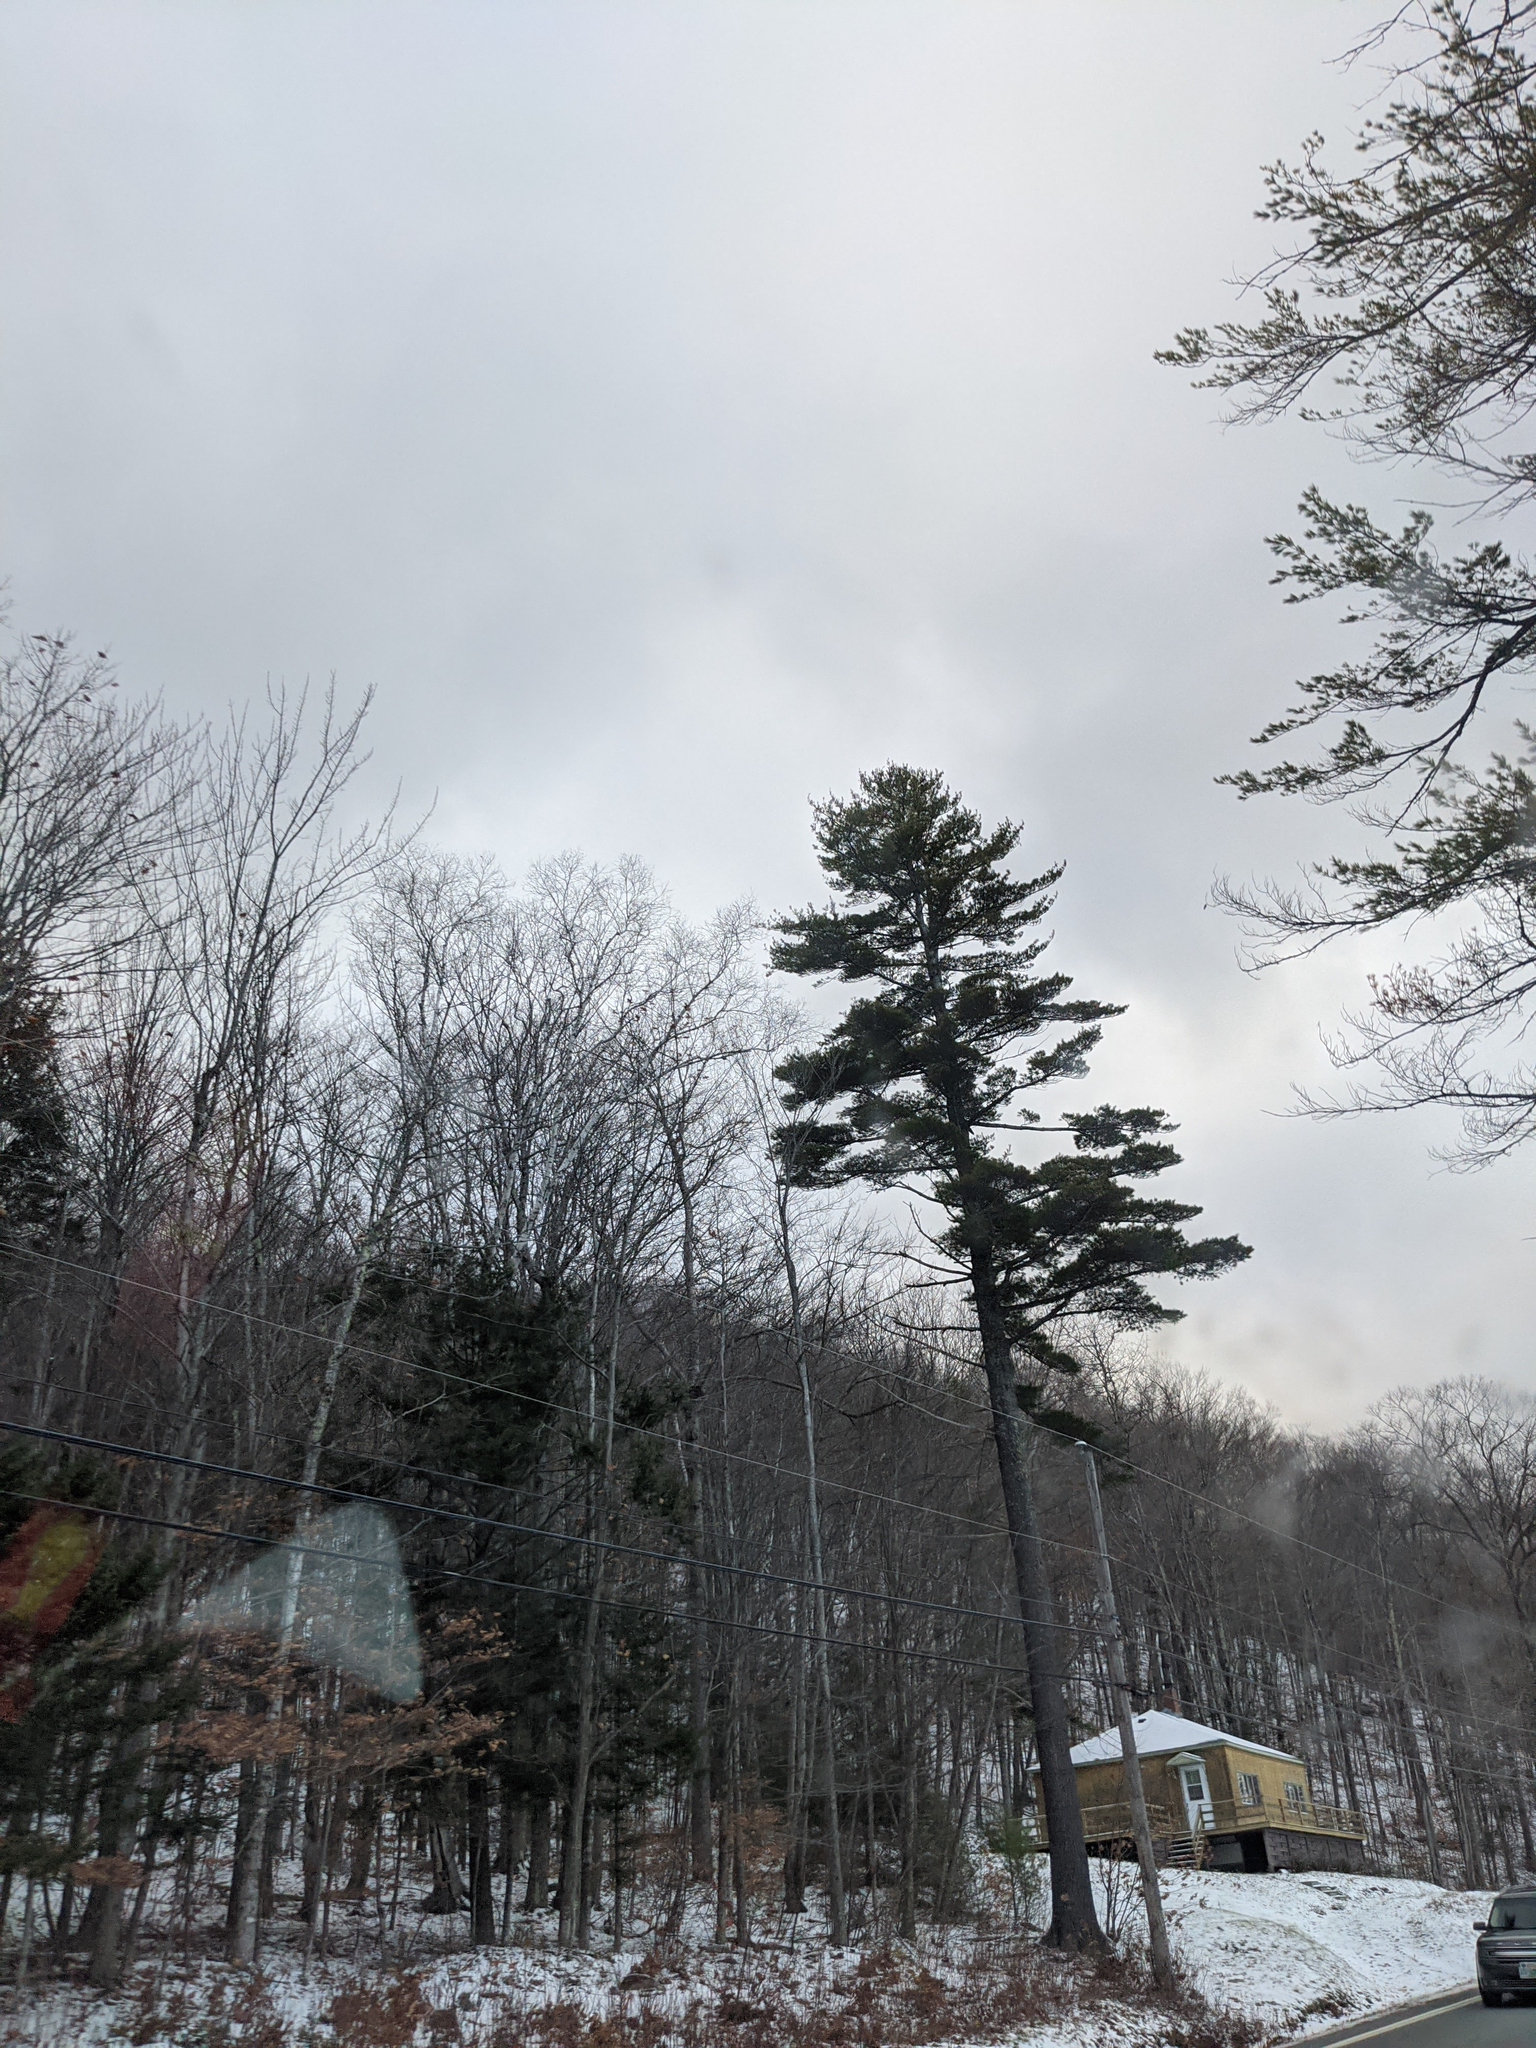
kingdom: Plantae
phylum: Tracheophyta
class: Pinopsida
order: Pinales
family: Pinaceae
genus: Pinus
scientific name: Pinus strobus
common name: Weymouth pine
